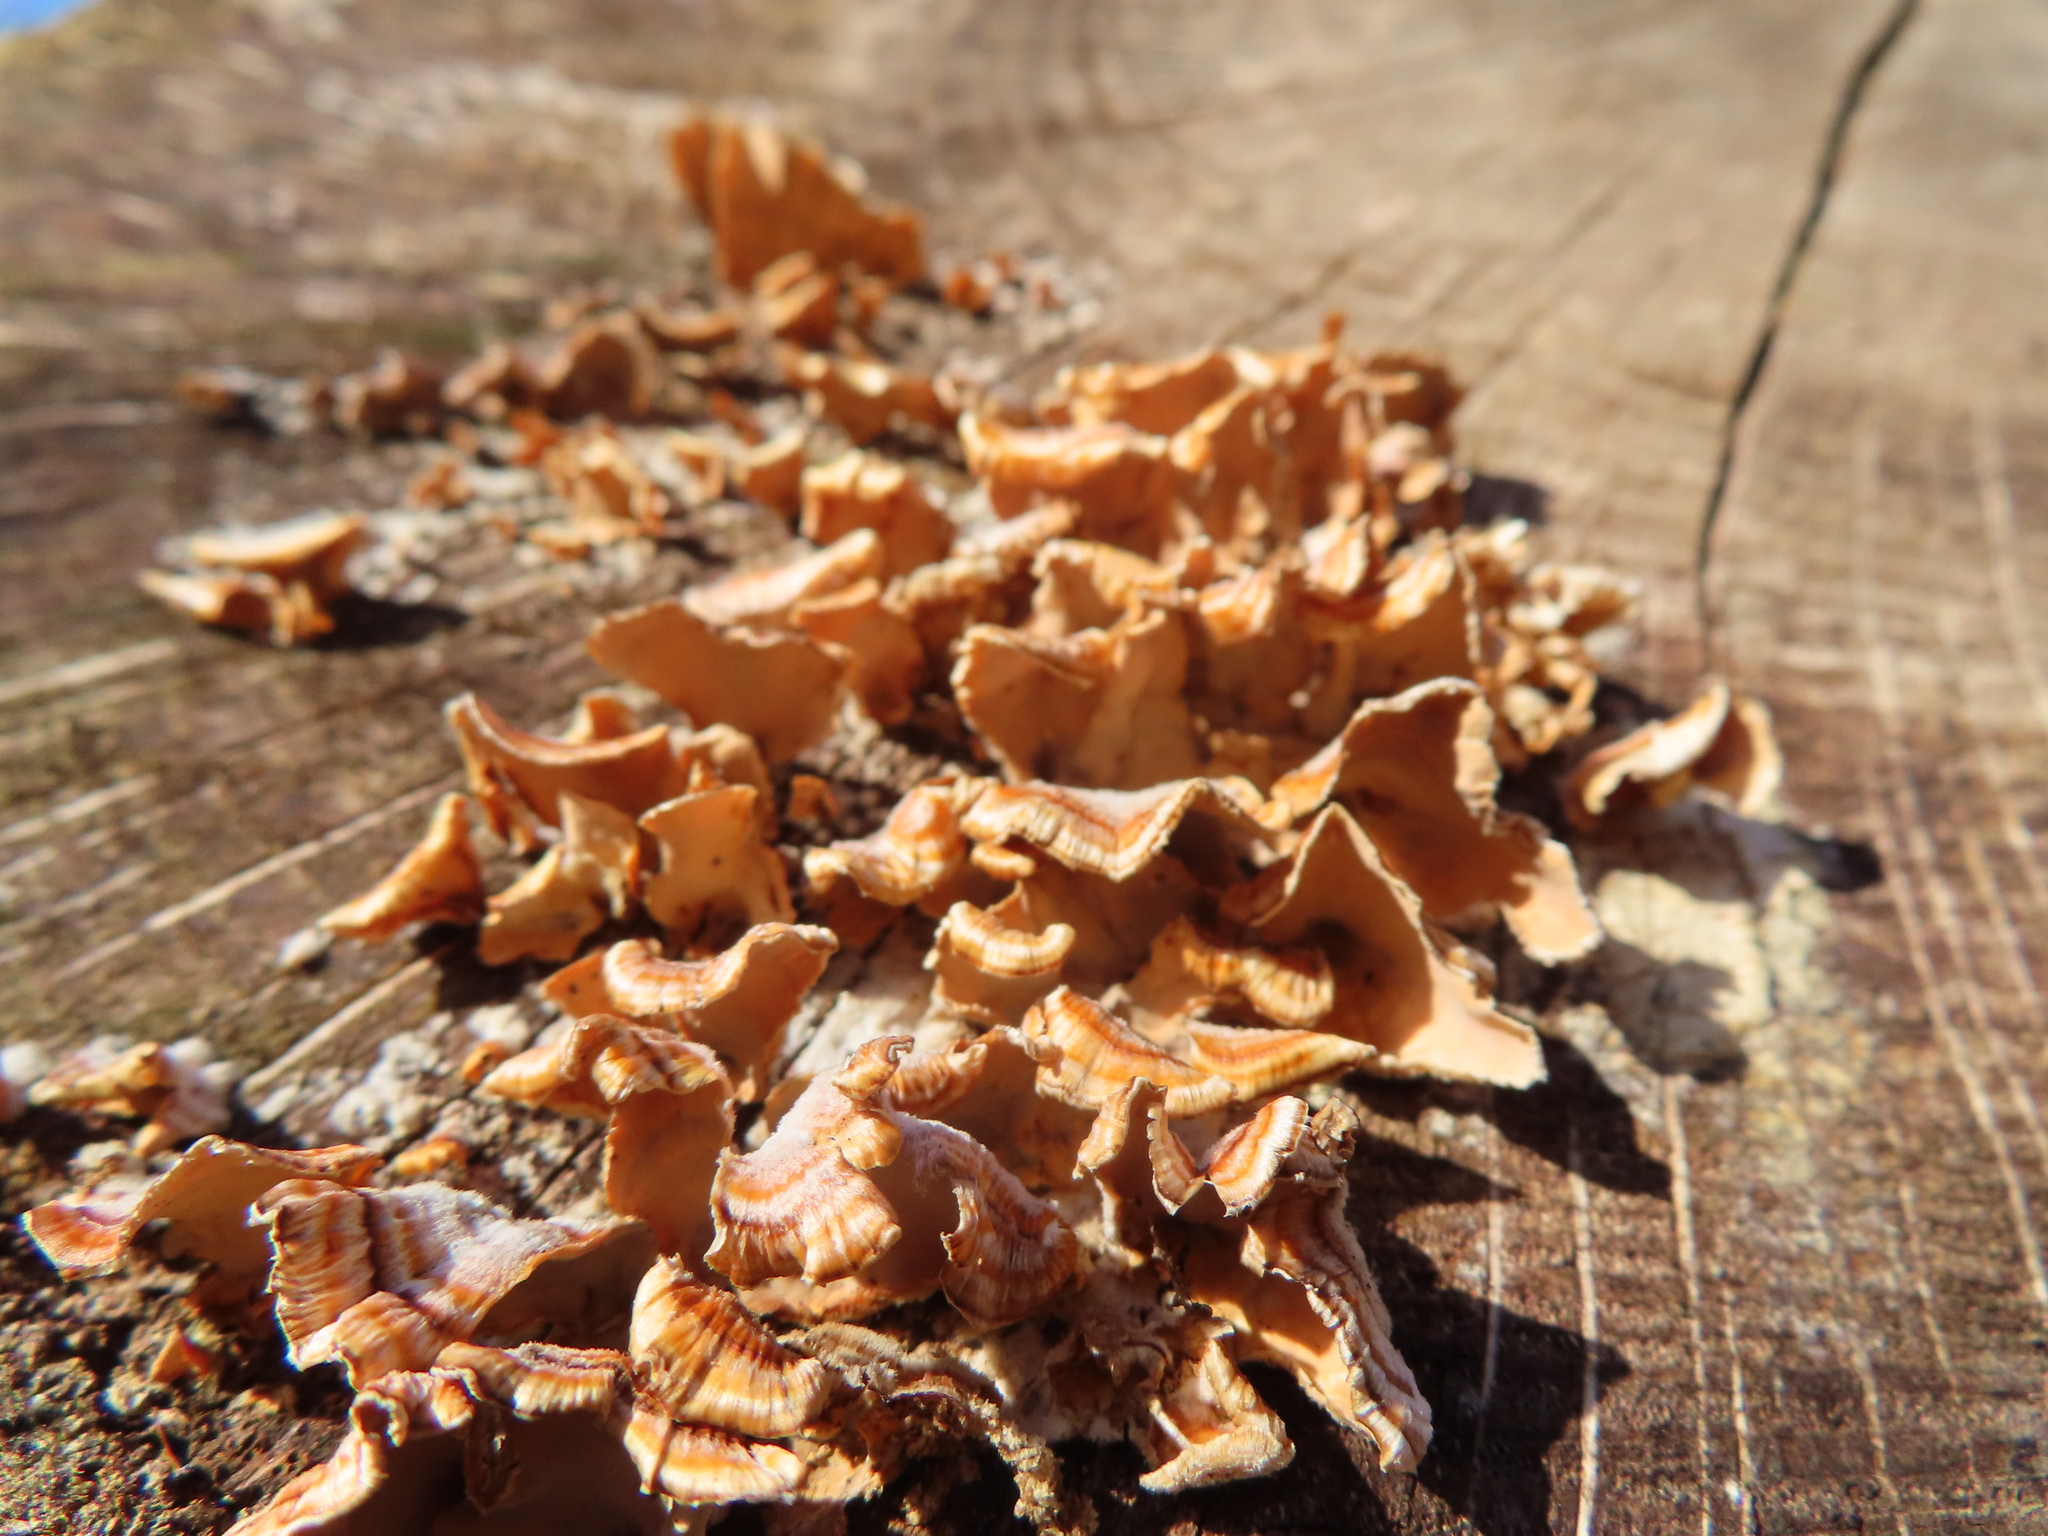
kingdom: Fungi
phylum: Basidiomycota
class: Agaricomycetes
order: Russulales
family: Stereaceae
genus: Stereum
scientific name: Stereum complicatum
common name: Crowded parchment
